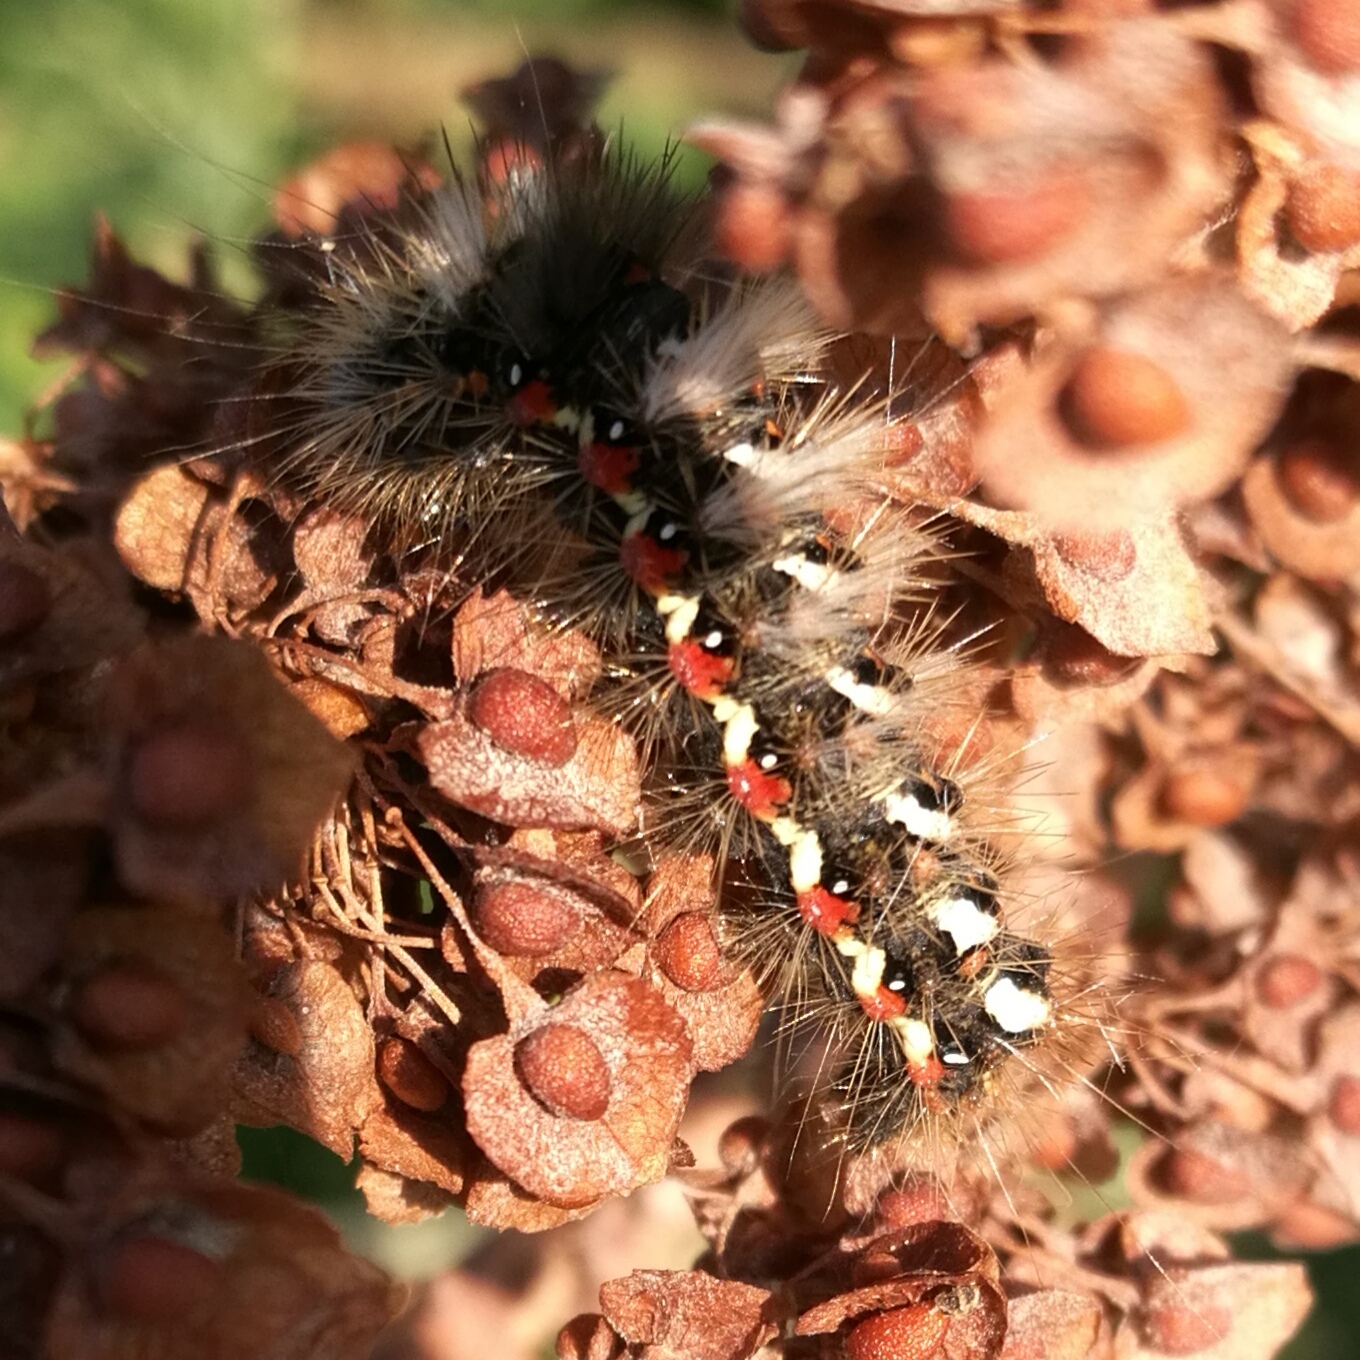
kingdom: Animalia
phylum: Arthropoda
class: Insecta
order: Lepidoptera
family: Noctuidae
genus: Acronicta
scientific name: Acronicta rumicis
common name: Knot grass
